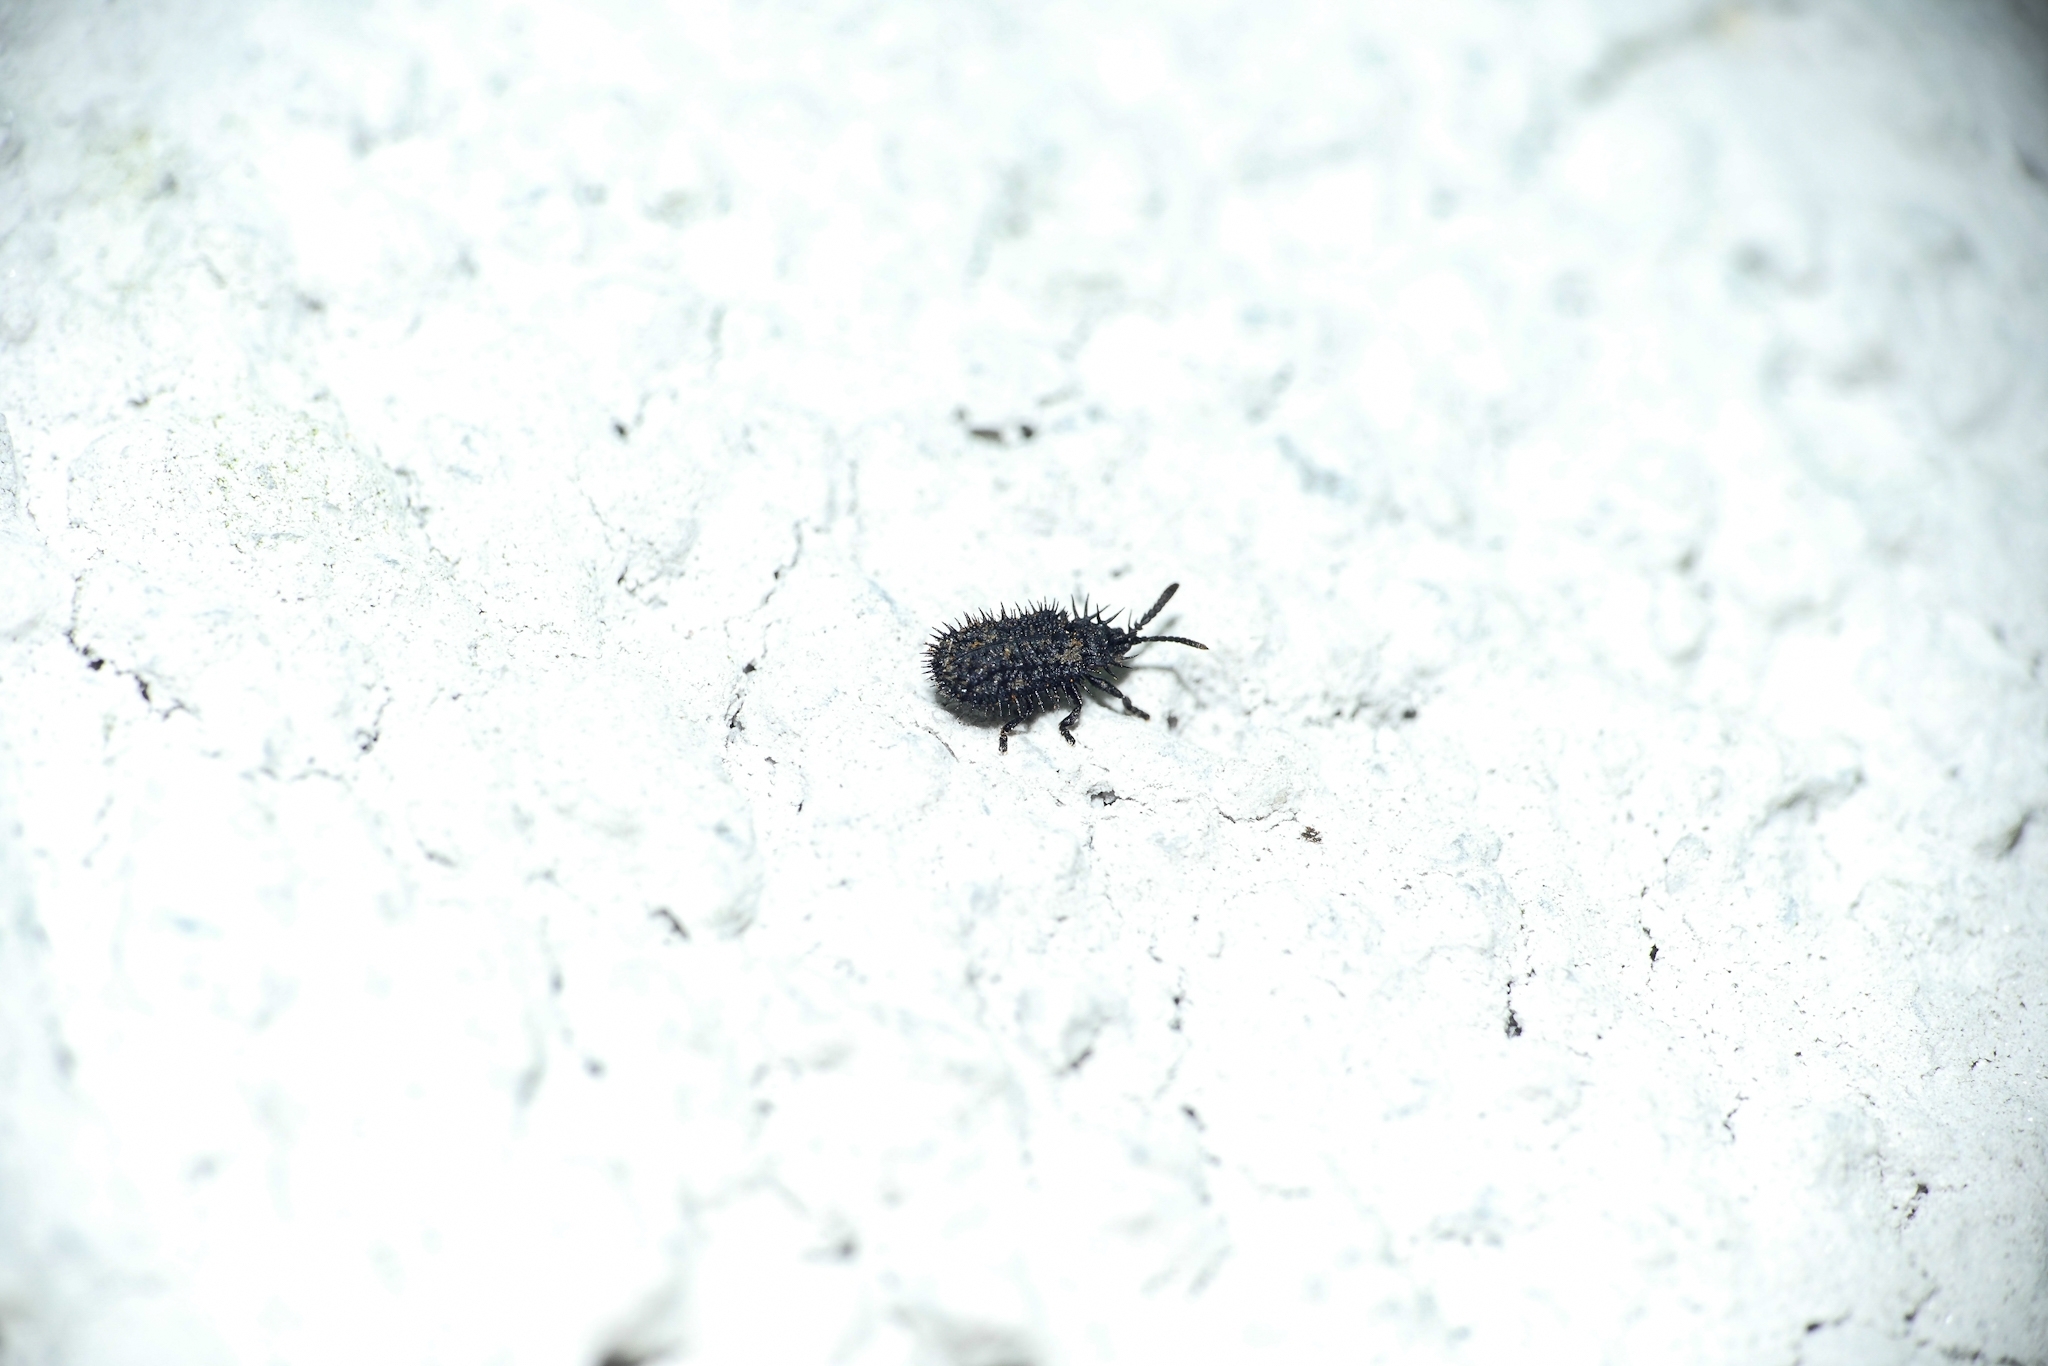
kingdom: Animalia
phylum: Arthropoda
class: Insecta
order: Coleoptera
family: Chrysomelidae
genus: Hispa
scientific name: Hispa atra
